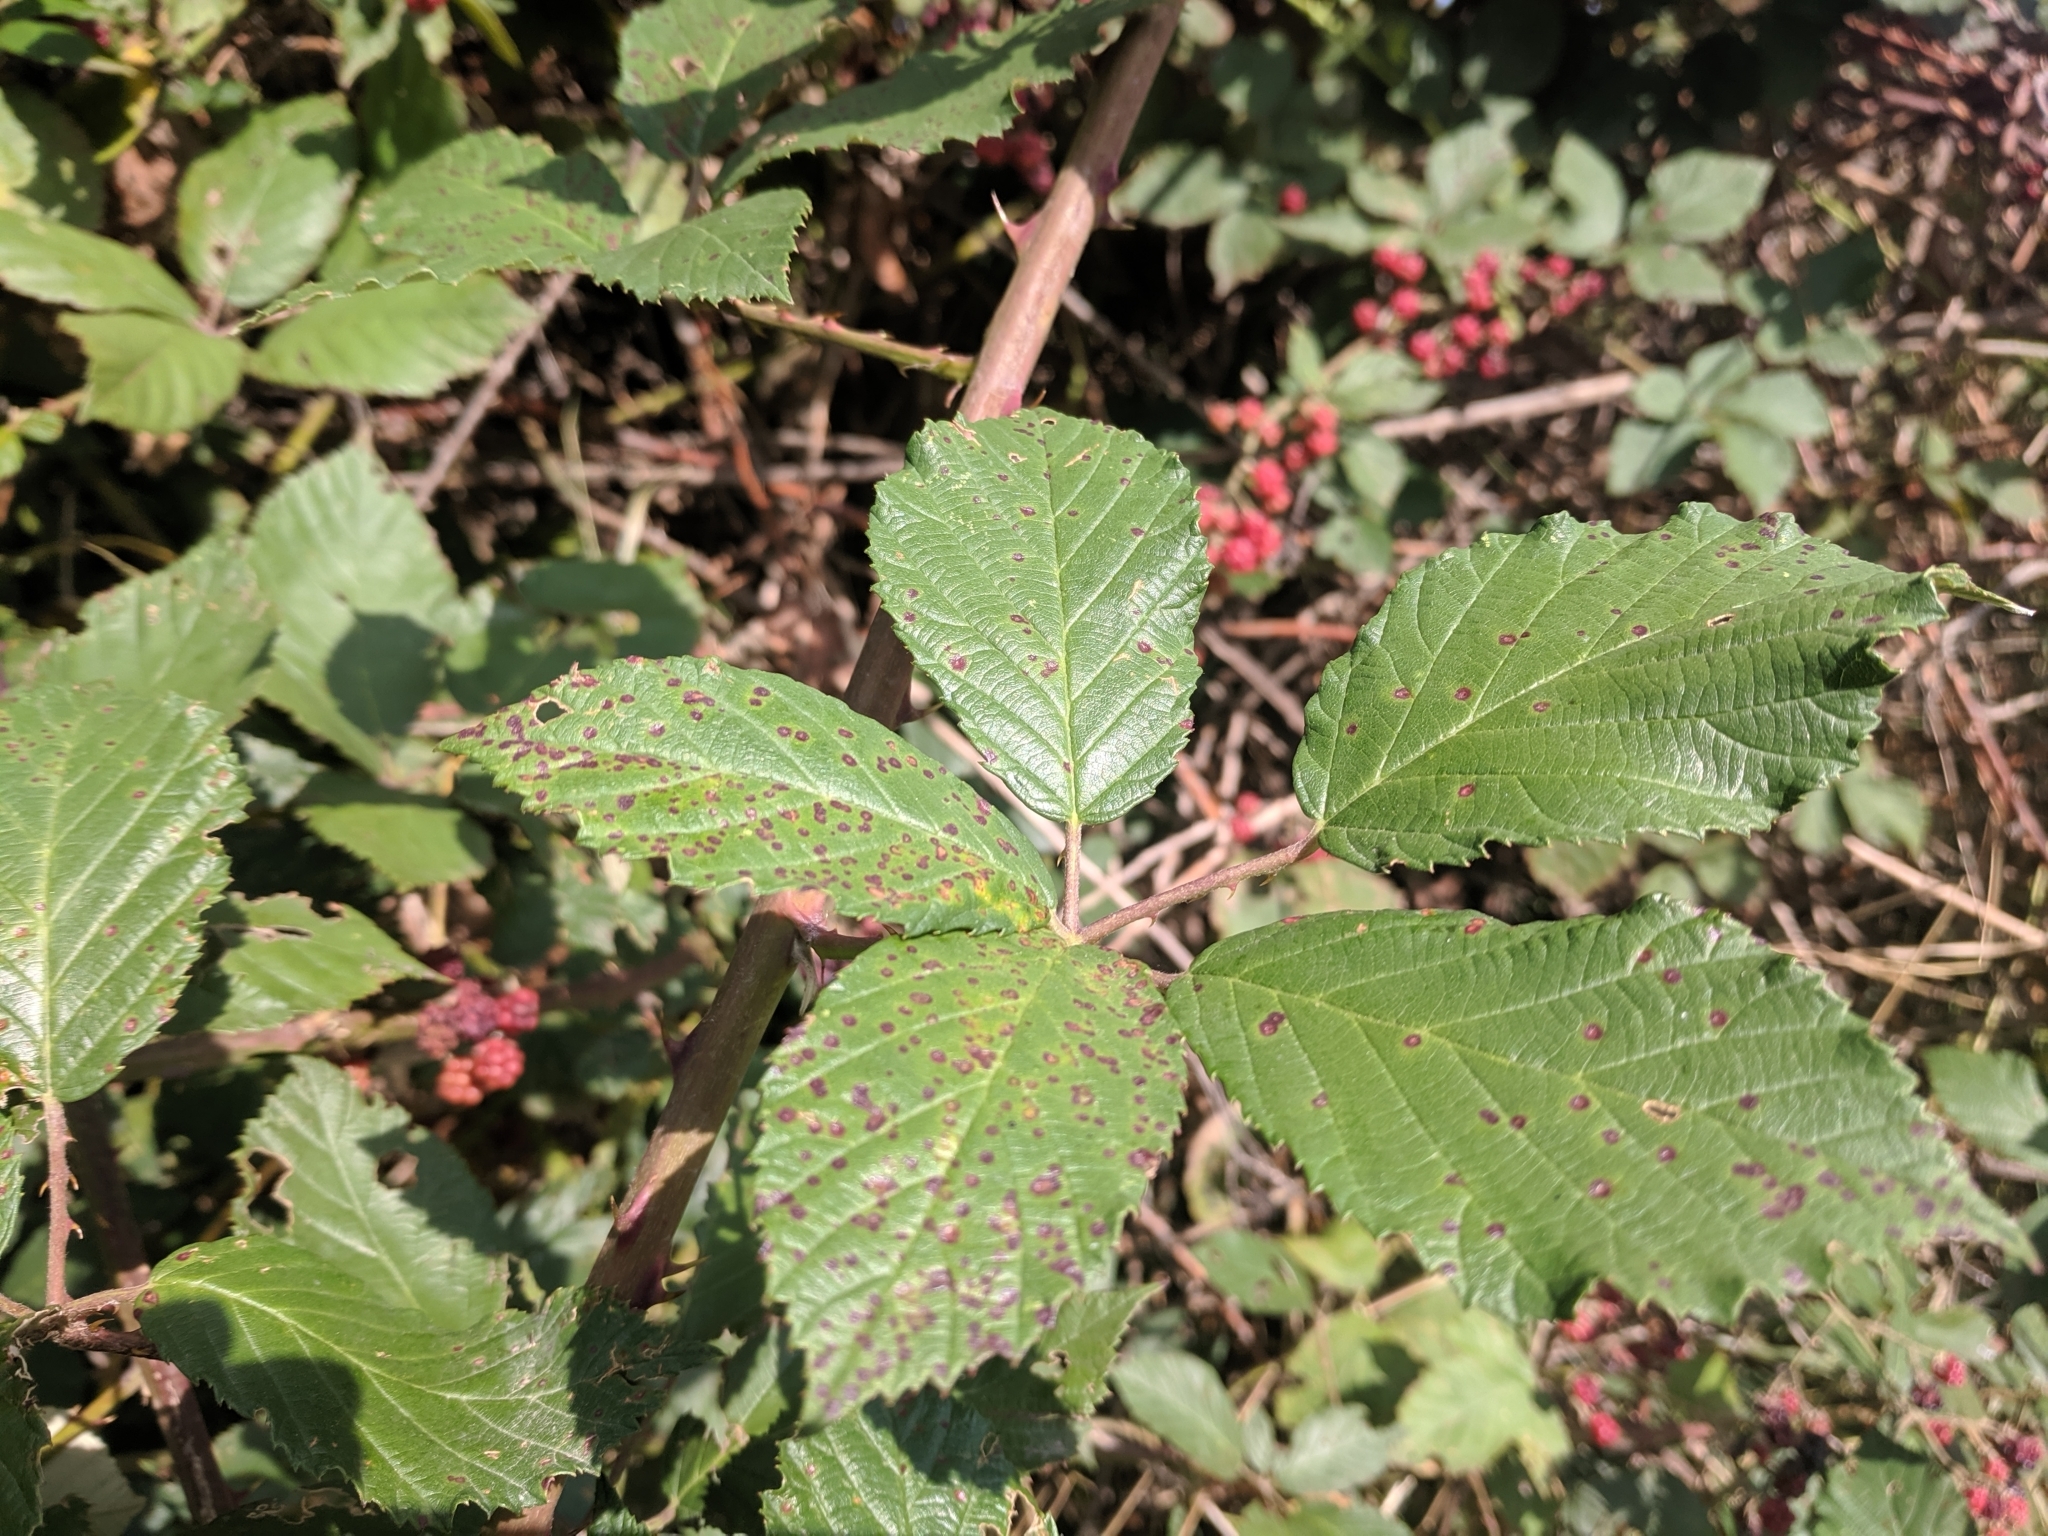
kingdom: Plantae
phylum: Tracheophyta
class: Magnoliopsida
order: Rosales
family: Rosaceae
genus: Rubus
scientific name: Rubus armeniacus
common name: Himalayan blackberry
